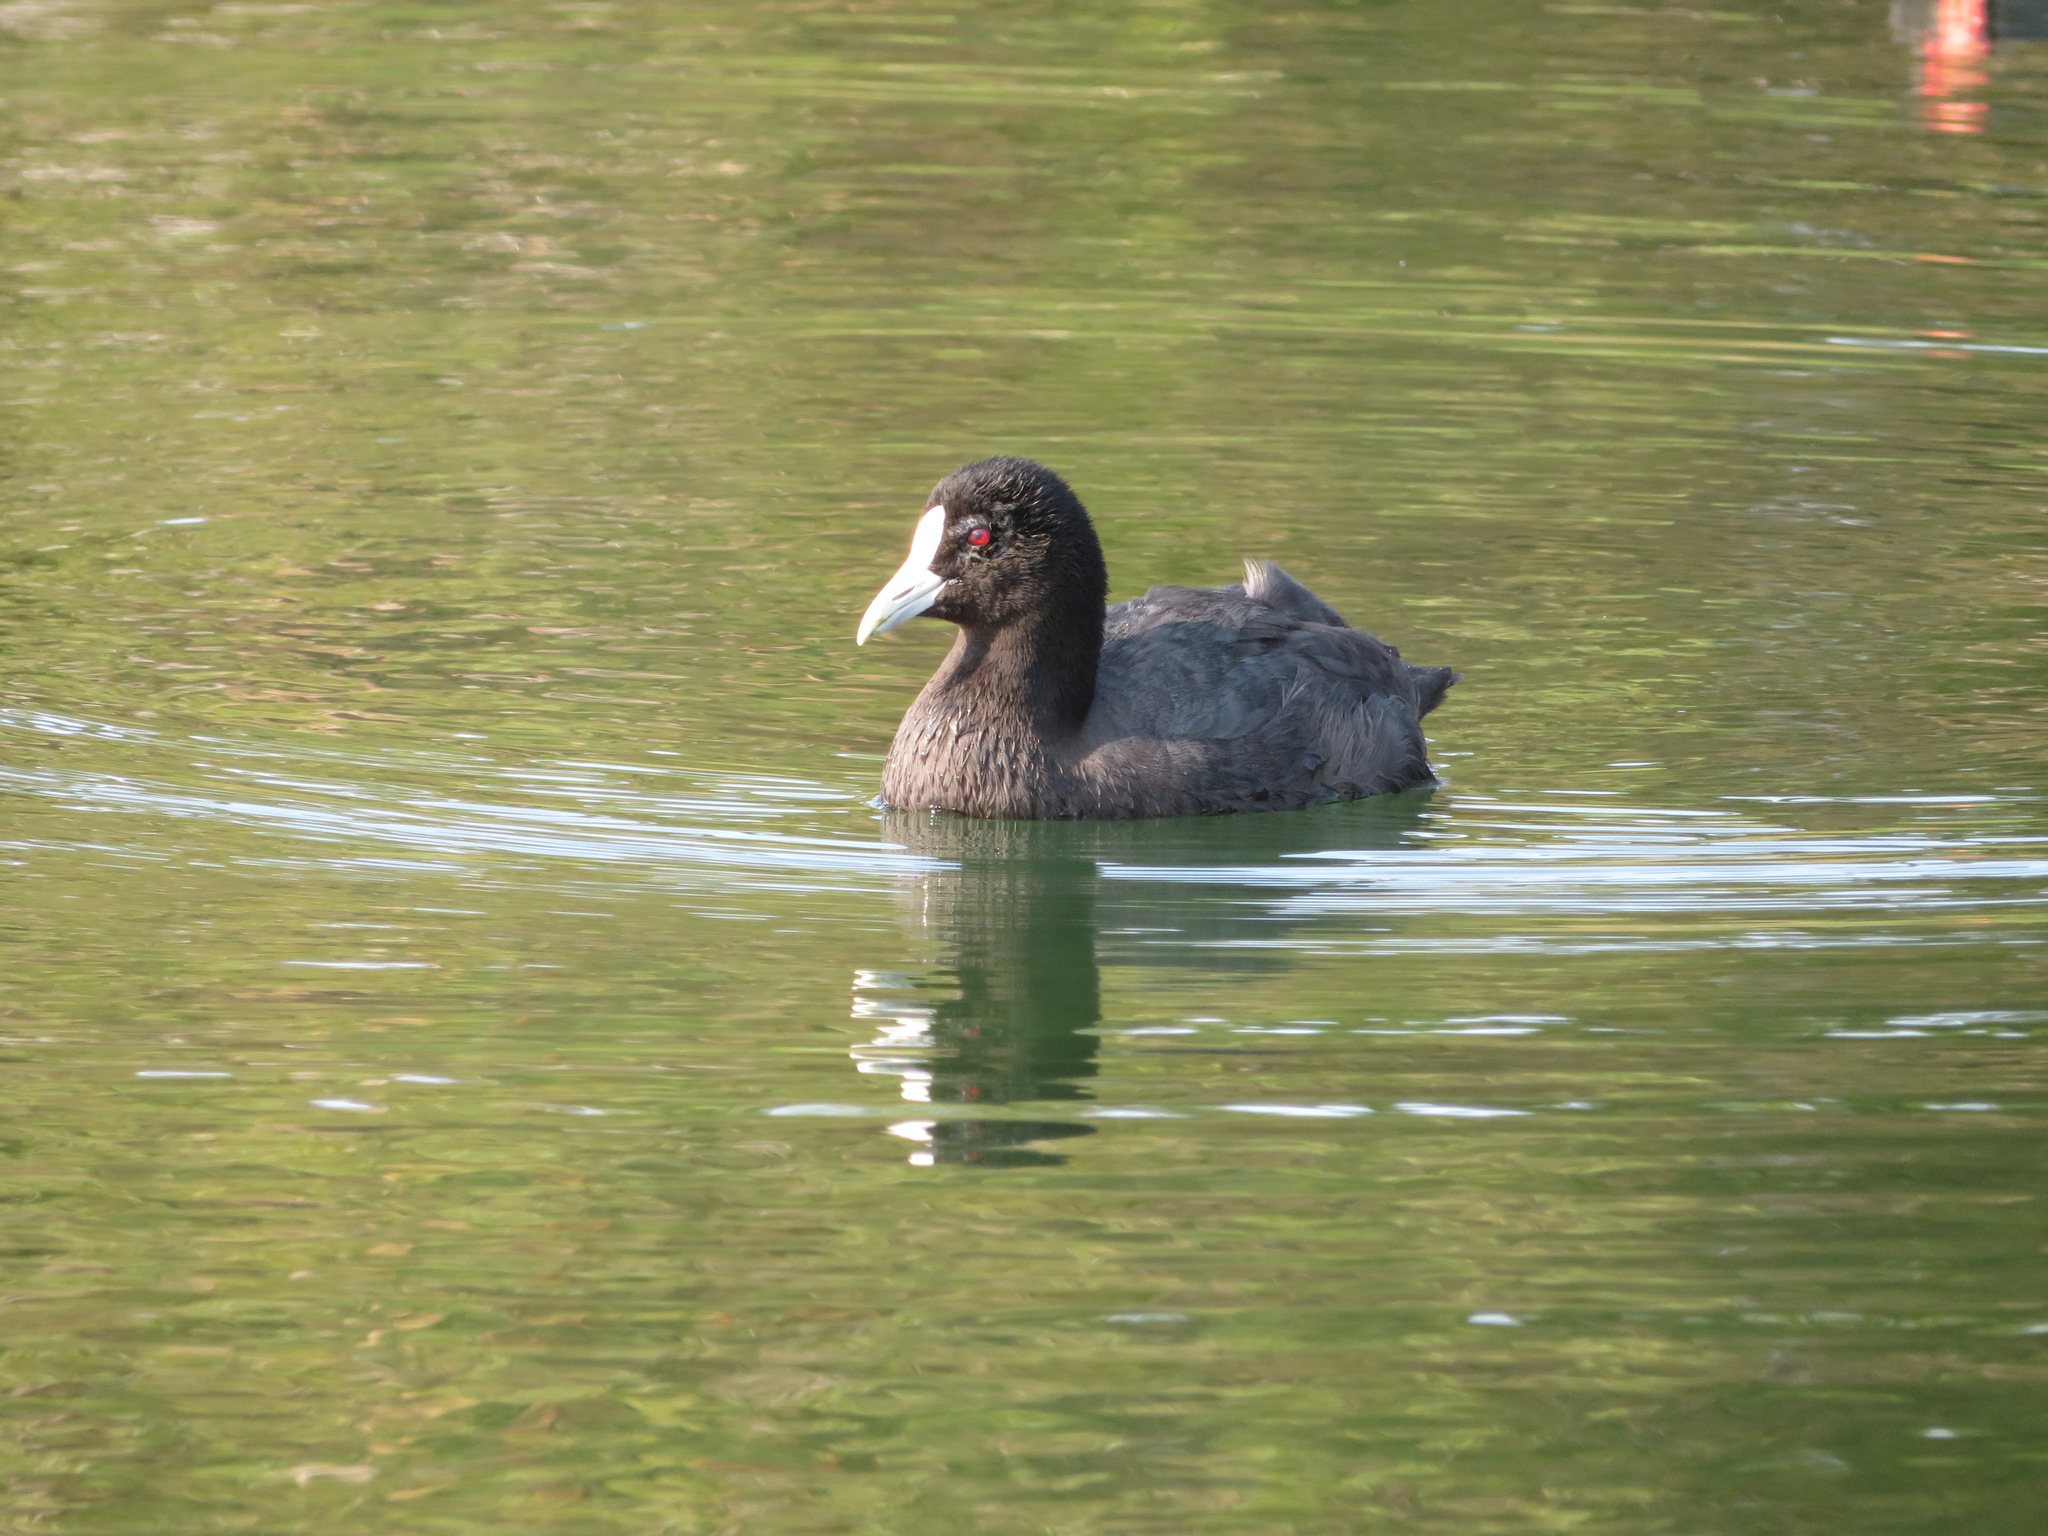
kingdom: Animalia
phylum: Chordata
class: Aves
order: Gruiformes
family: Rallidae
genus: Fulica
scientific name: Fulica atra
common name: Eurasian coot
